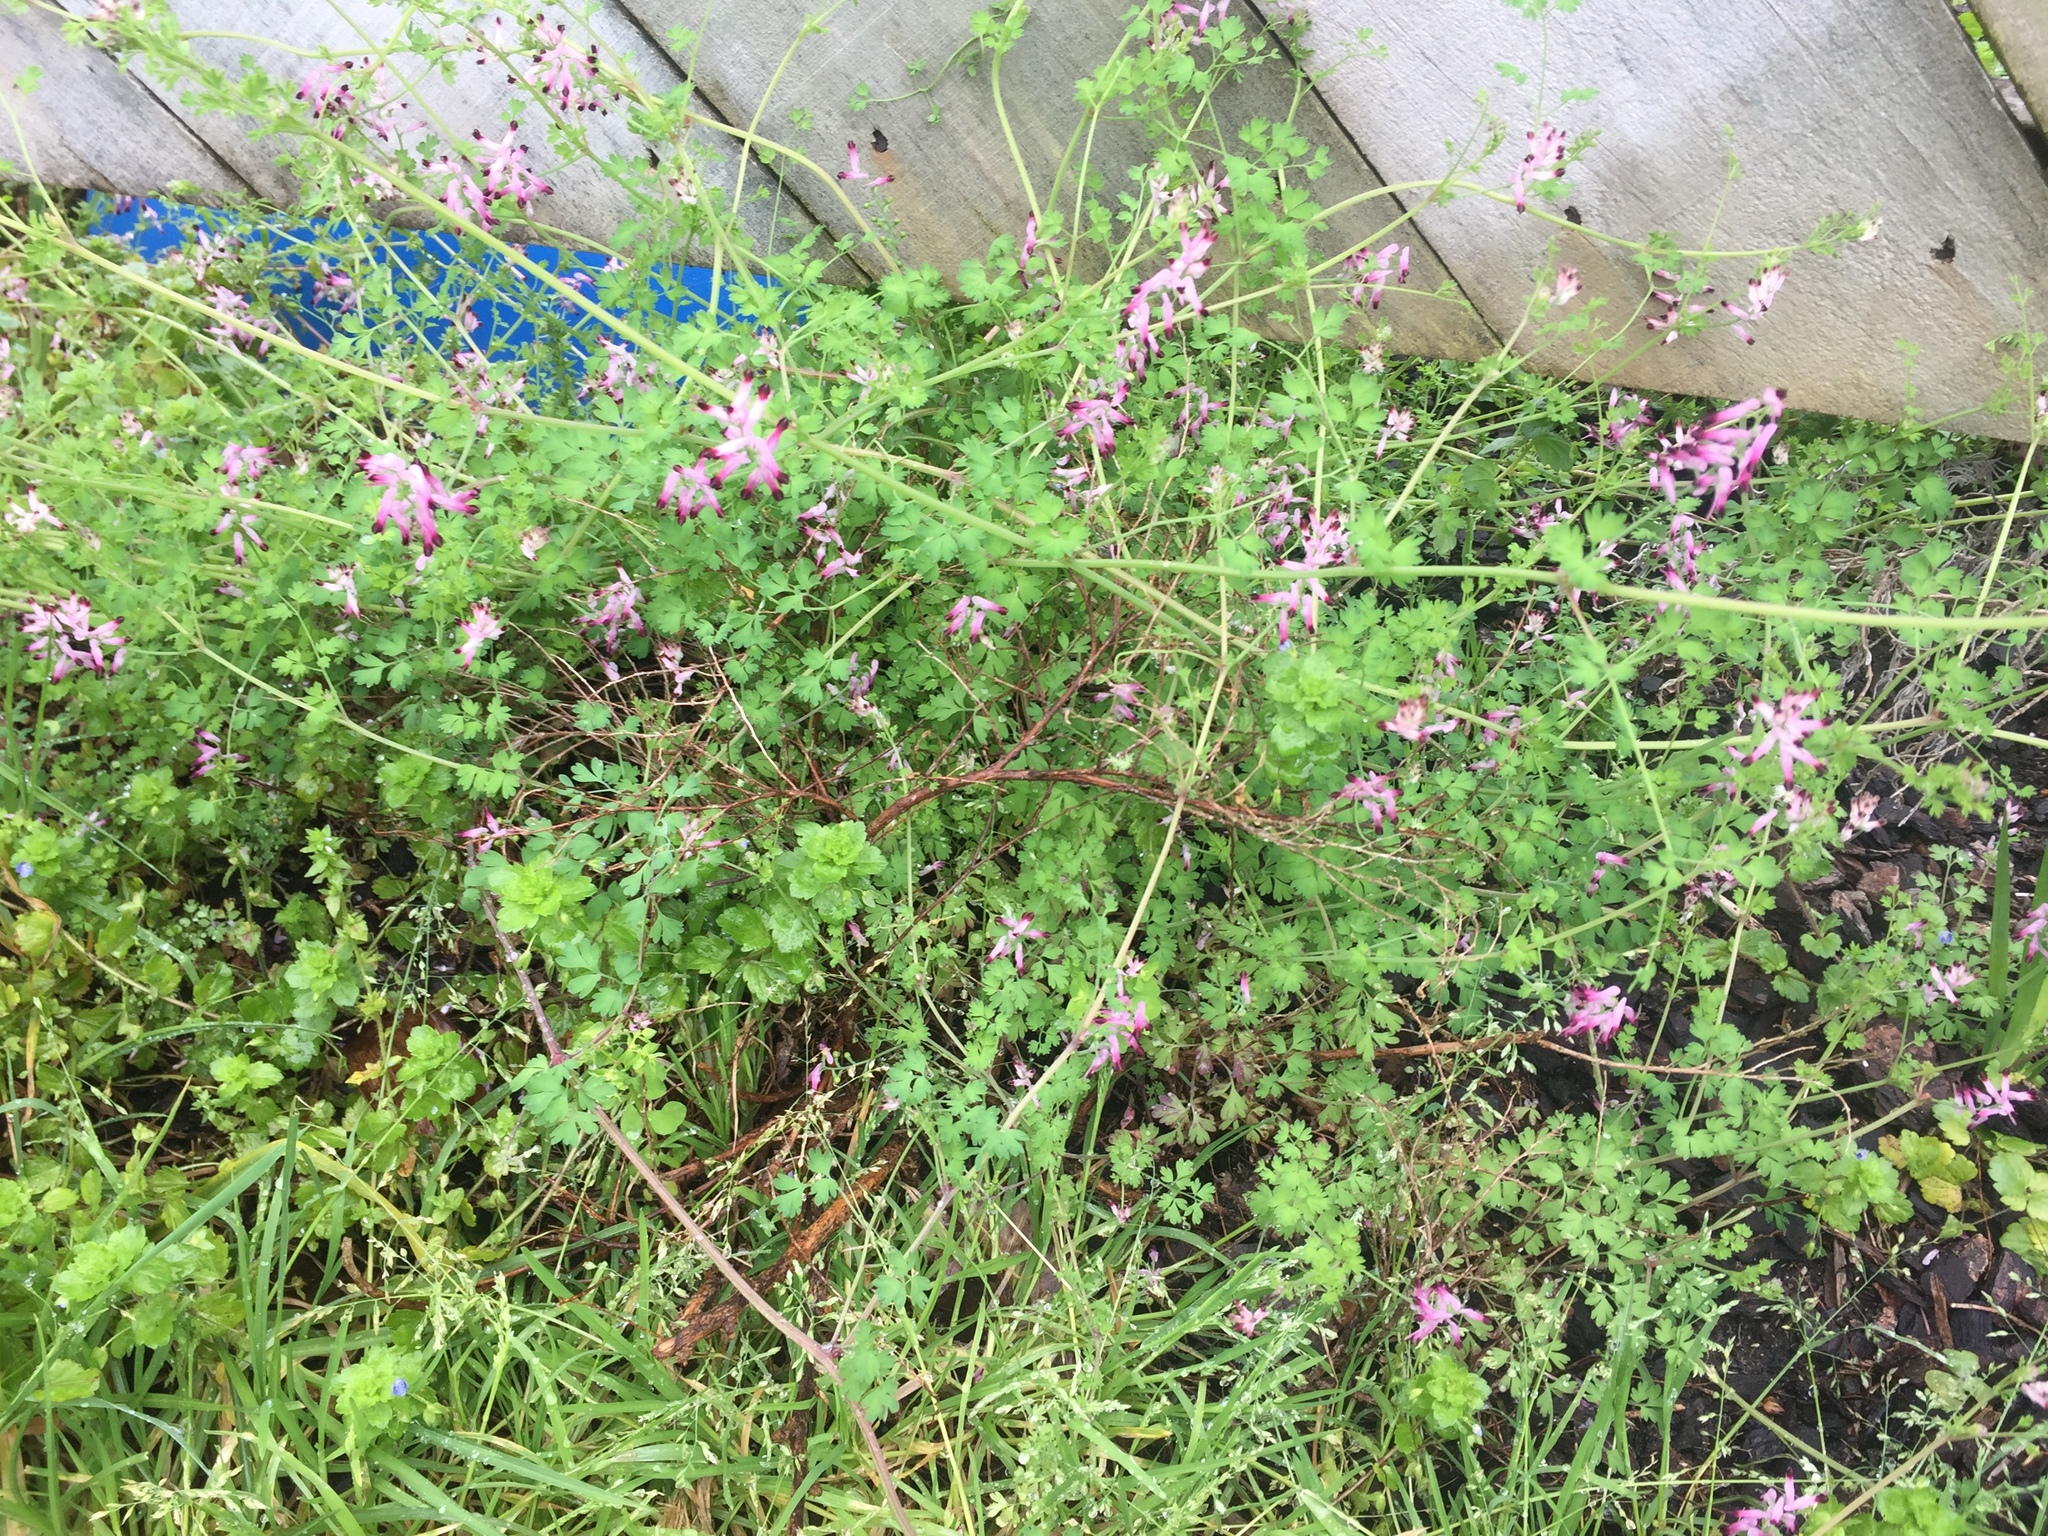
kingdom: Plantae
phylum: Tracheophyta
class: Magnoliopsida
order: Ranunculales
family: Papaveraceae
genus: Fumaria
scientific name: Fumaria muralis
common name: Common ramping-fumitory
